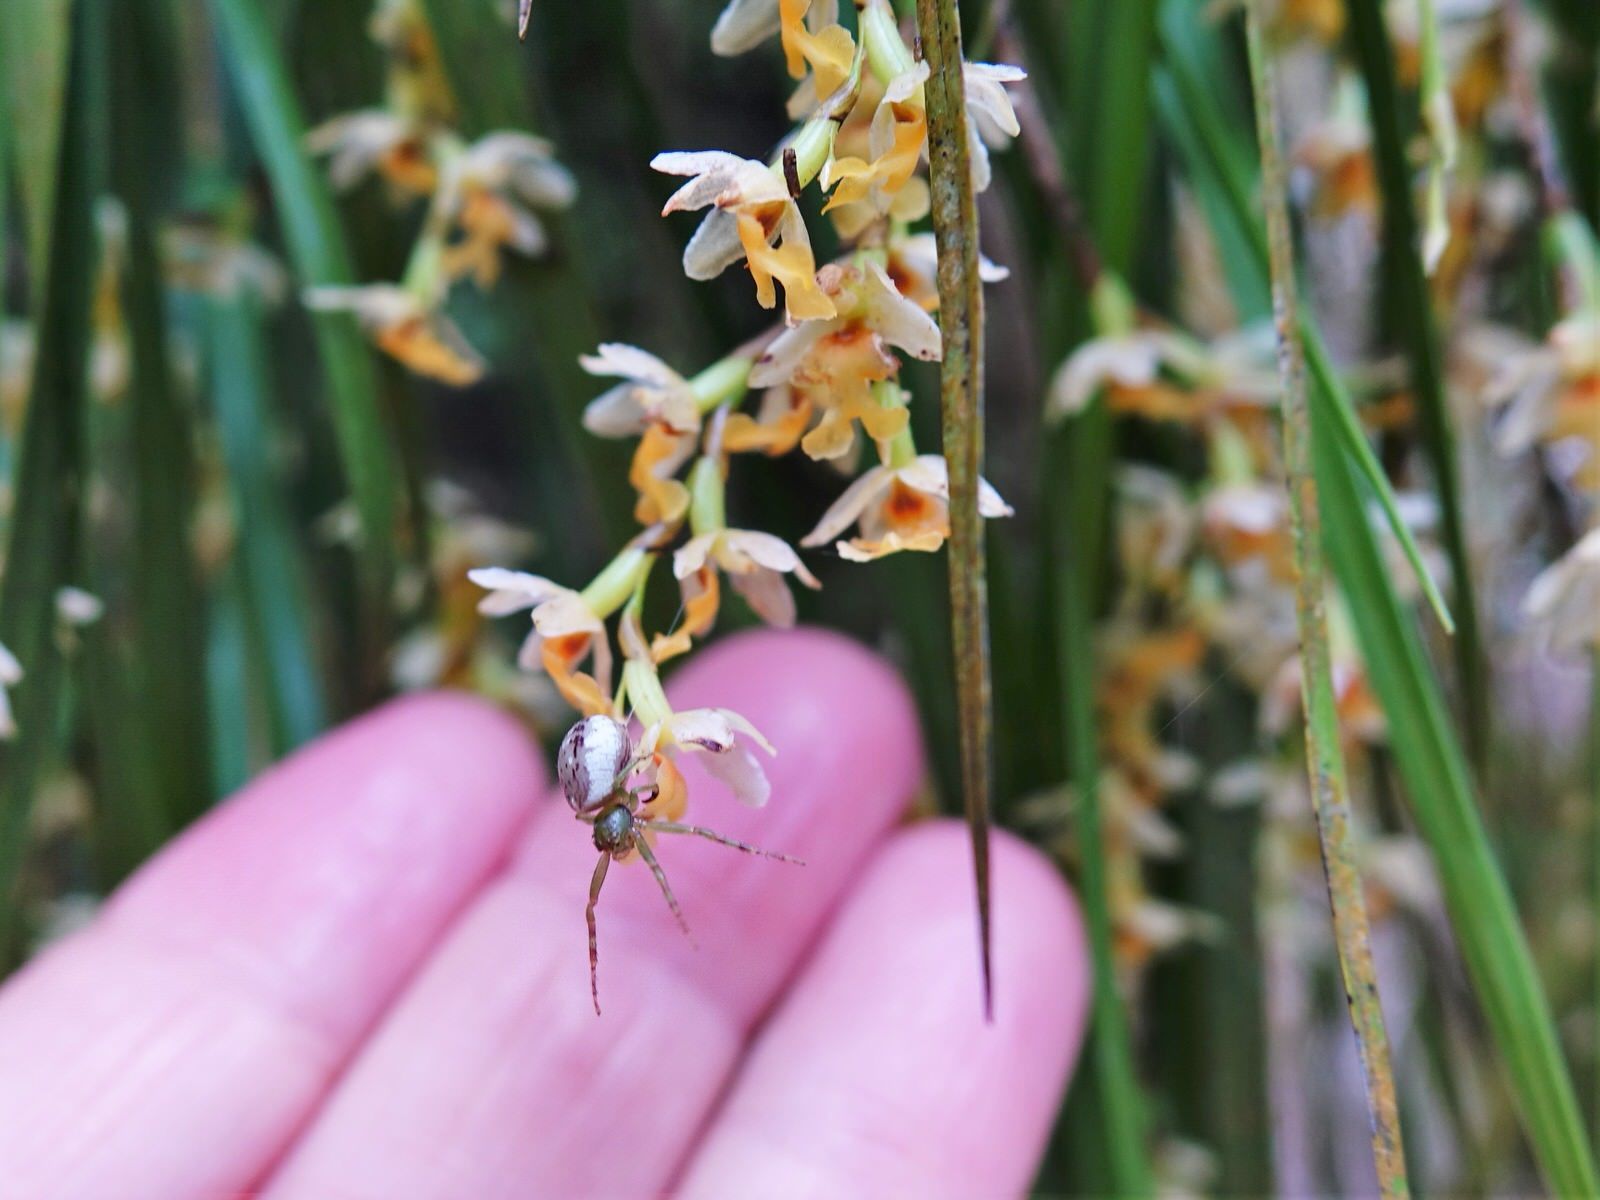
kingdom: Animalia
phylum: Arthropoda
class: Arachnida
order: Araneae
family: Thomisidae
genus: Diaea
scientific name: Diaea ambara
